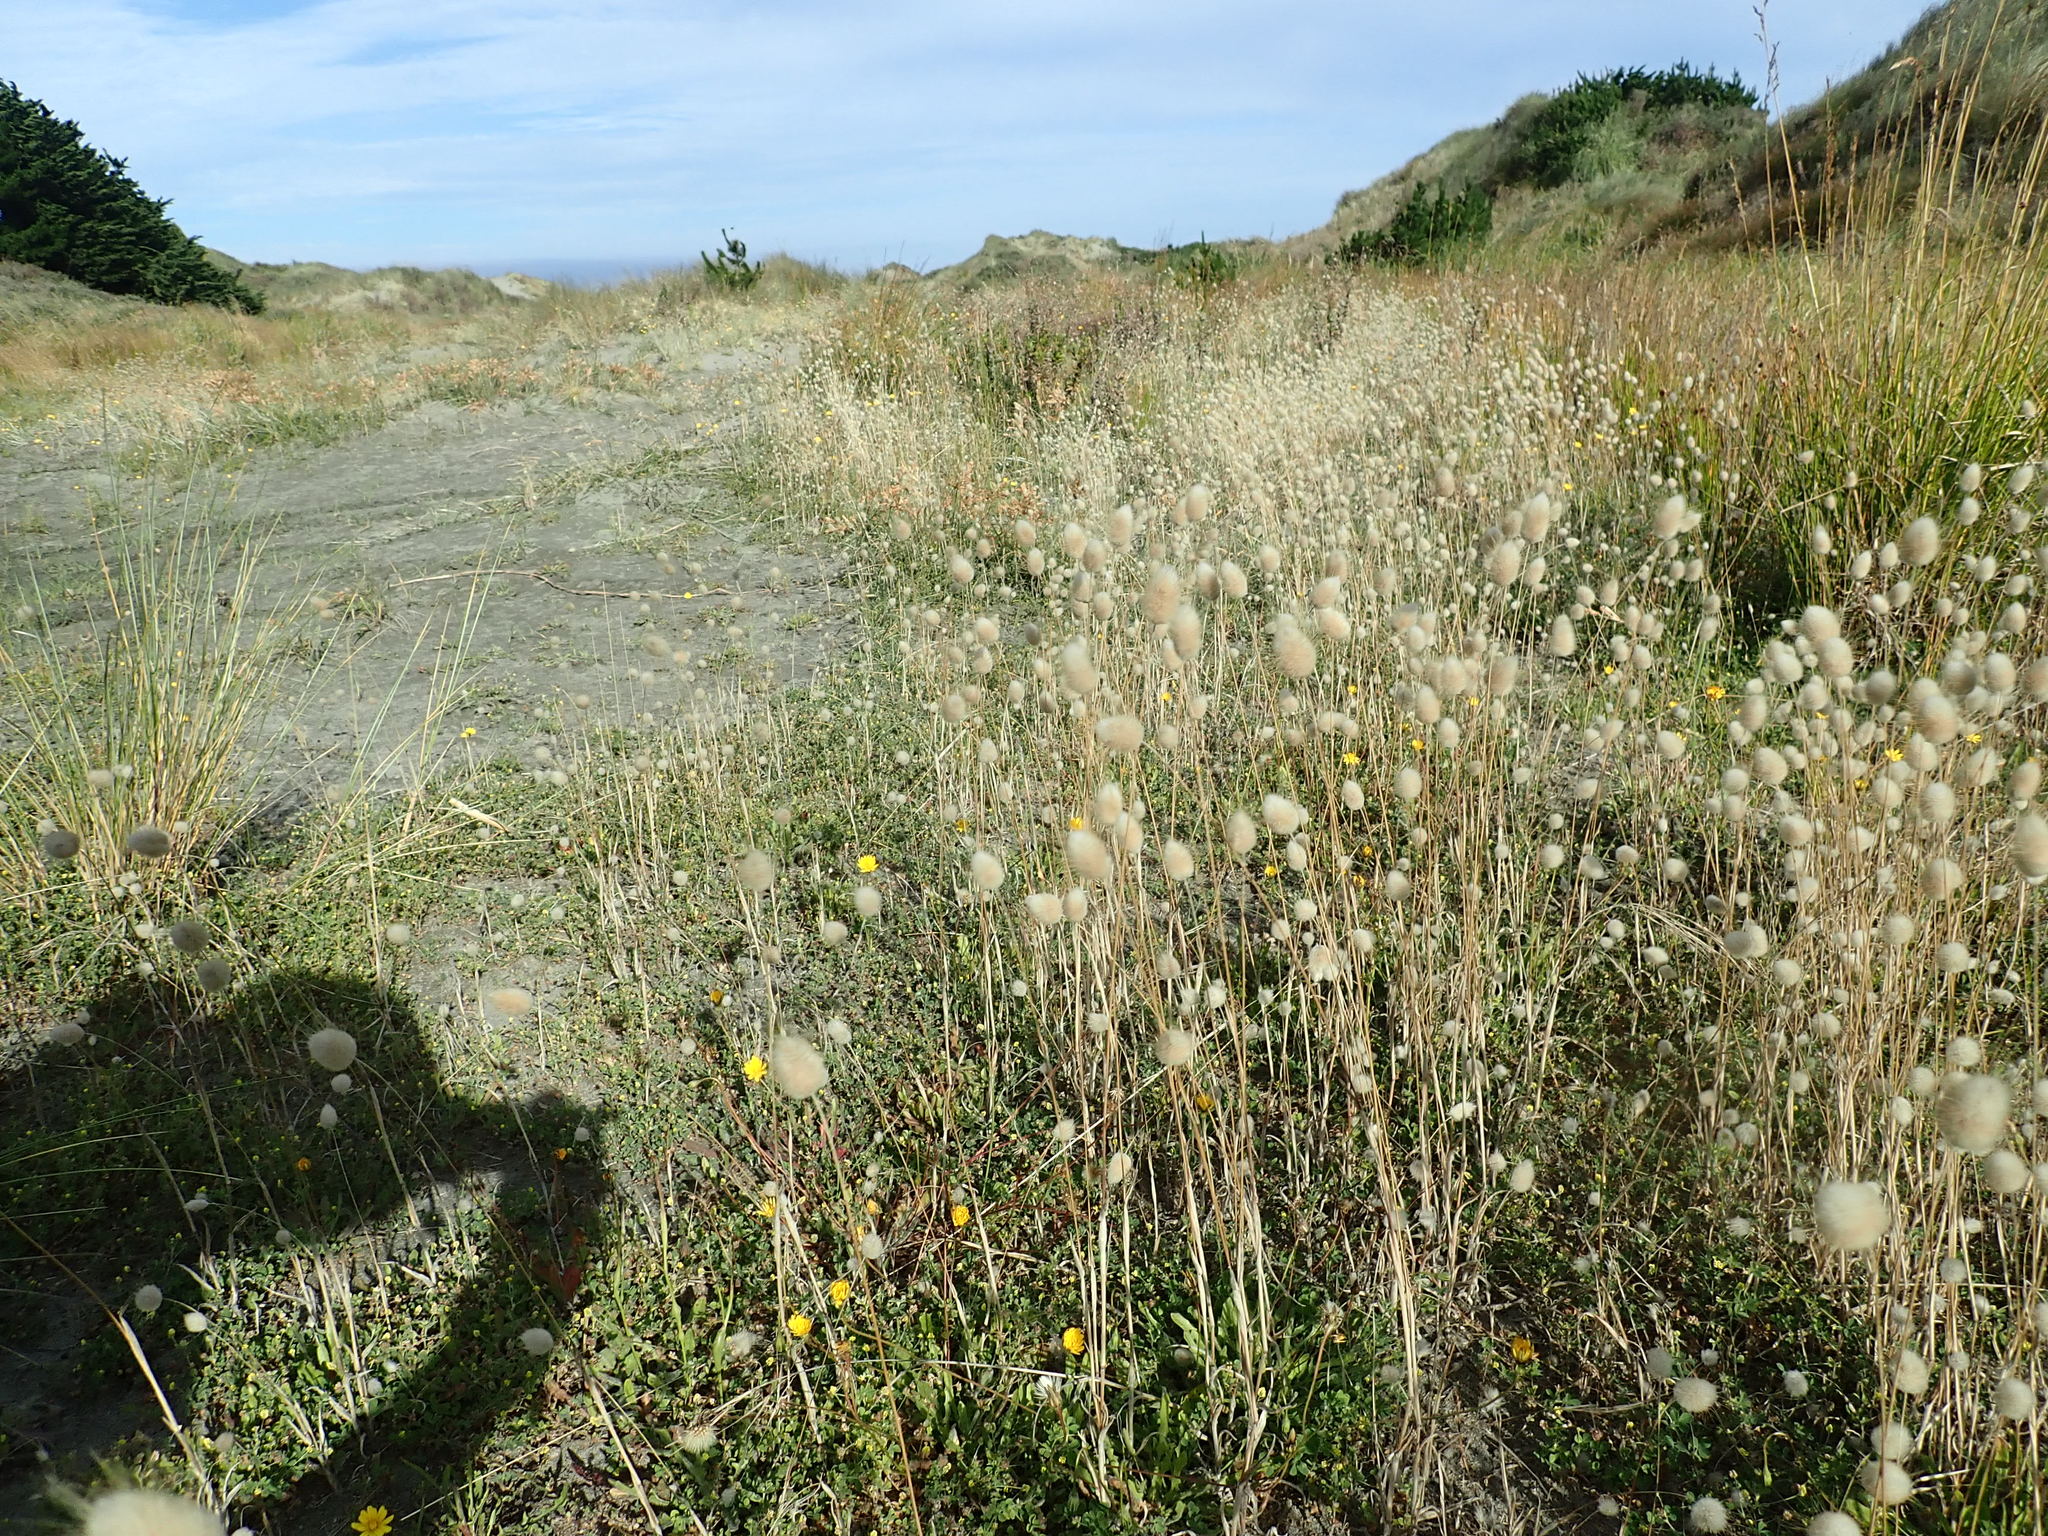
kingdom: Plantae
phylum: Tracheophyta
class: Liliopsida
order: Poales
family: Poaceae
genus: Lagurus
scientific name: Lagurus ovatus
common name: Hare's-tail
